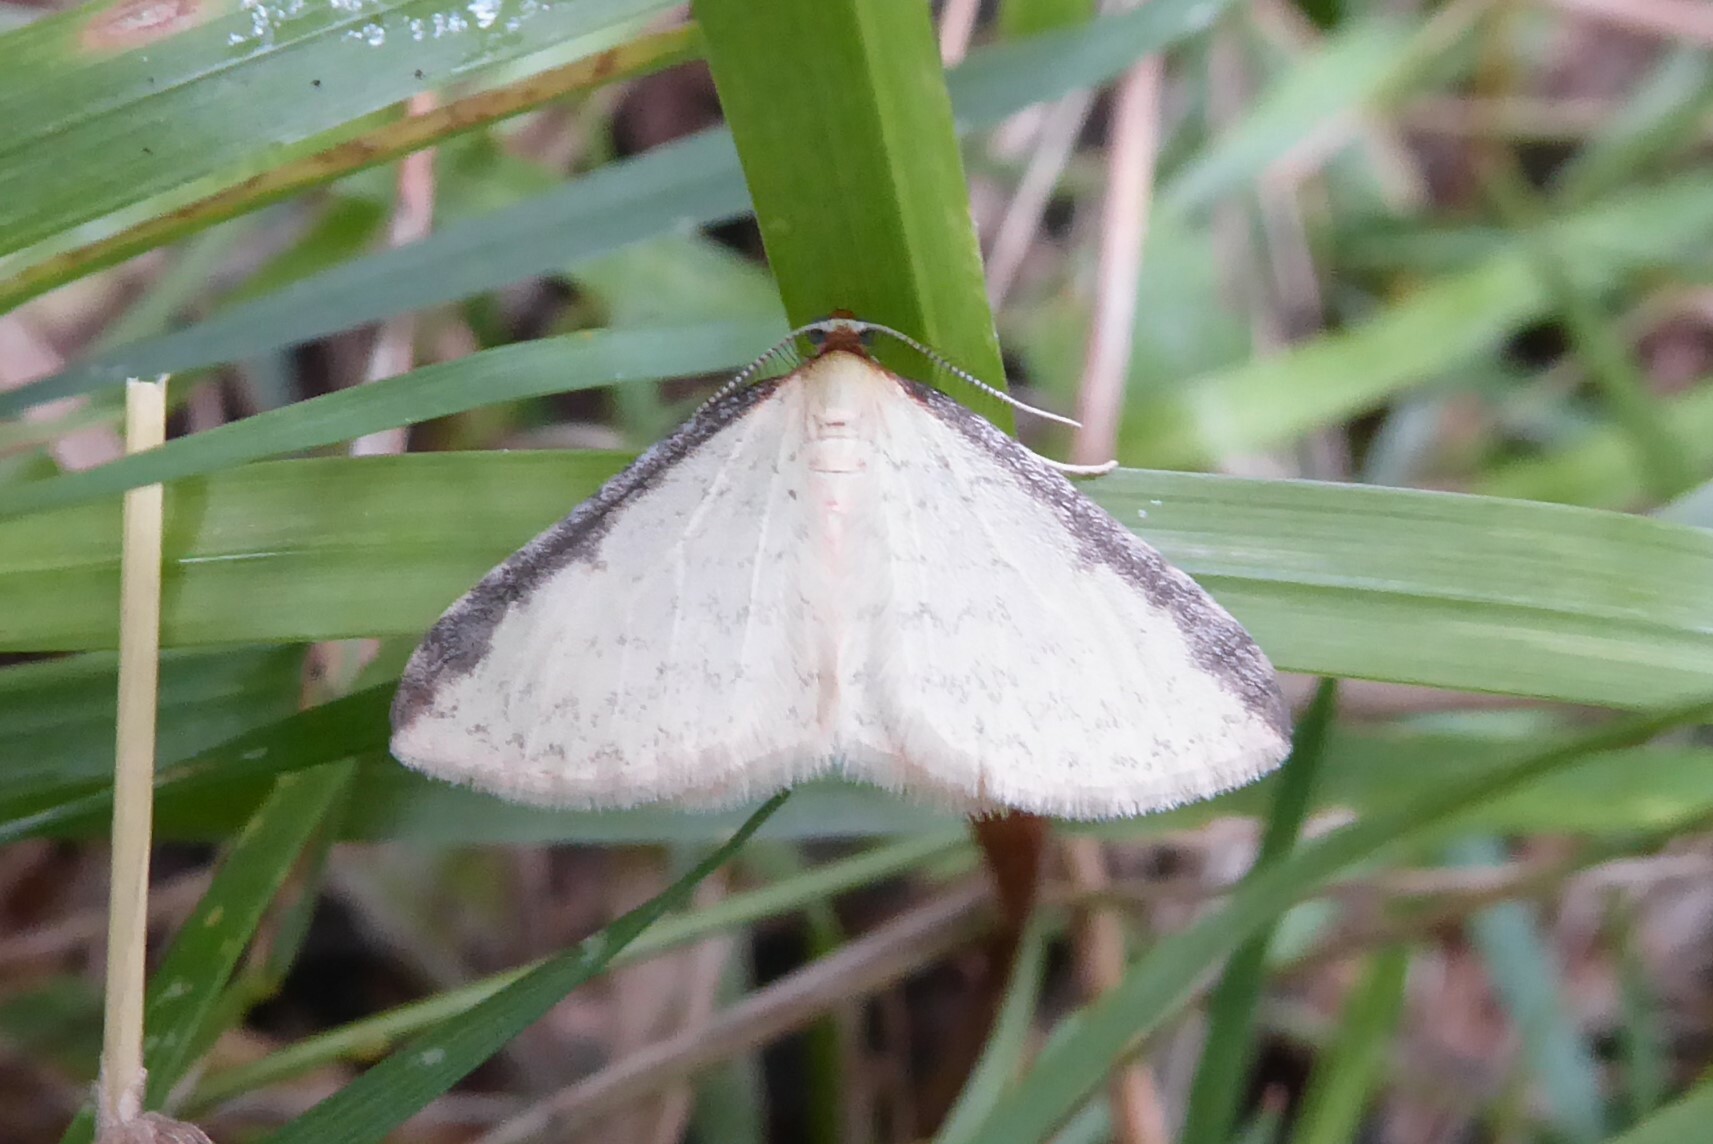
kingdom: Animalia
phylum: Arthropoda
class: Insecta
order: Lepidoptera
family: Geometridae
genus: Epiphryne
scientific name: Epiphryne undosata
